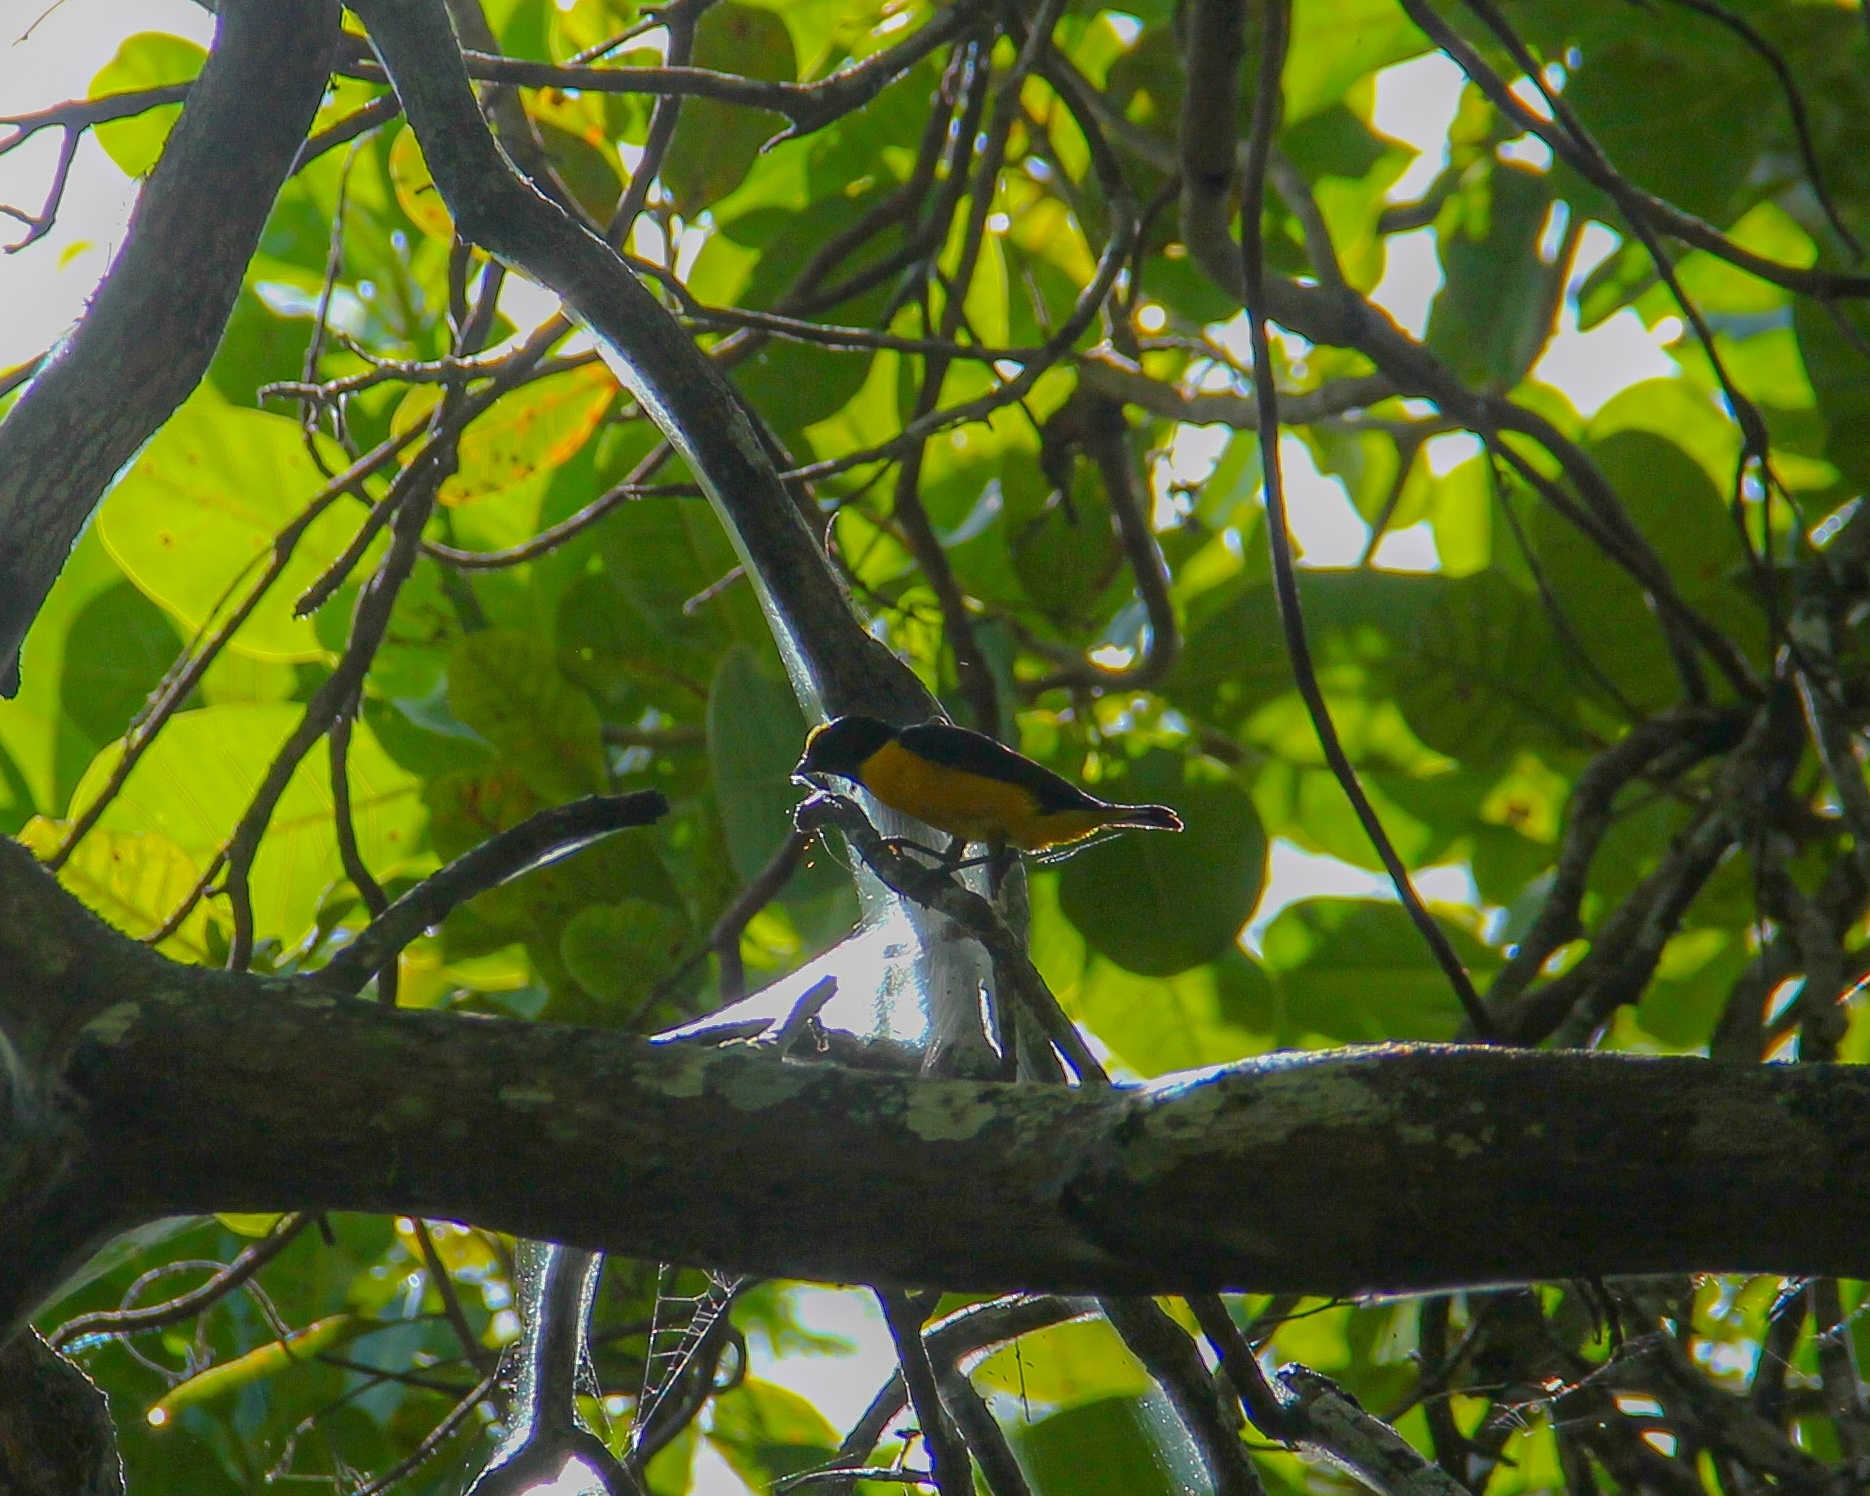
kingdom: Animalia
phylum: Chordata
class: Aves
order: Passeriformes
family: Fringillidae
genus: Euphonia
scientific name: Euphonia chlorotica
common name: Purple-throated euphonia
